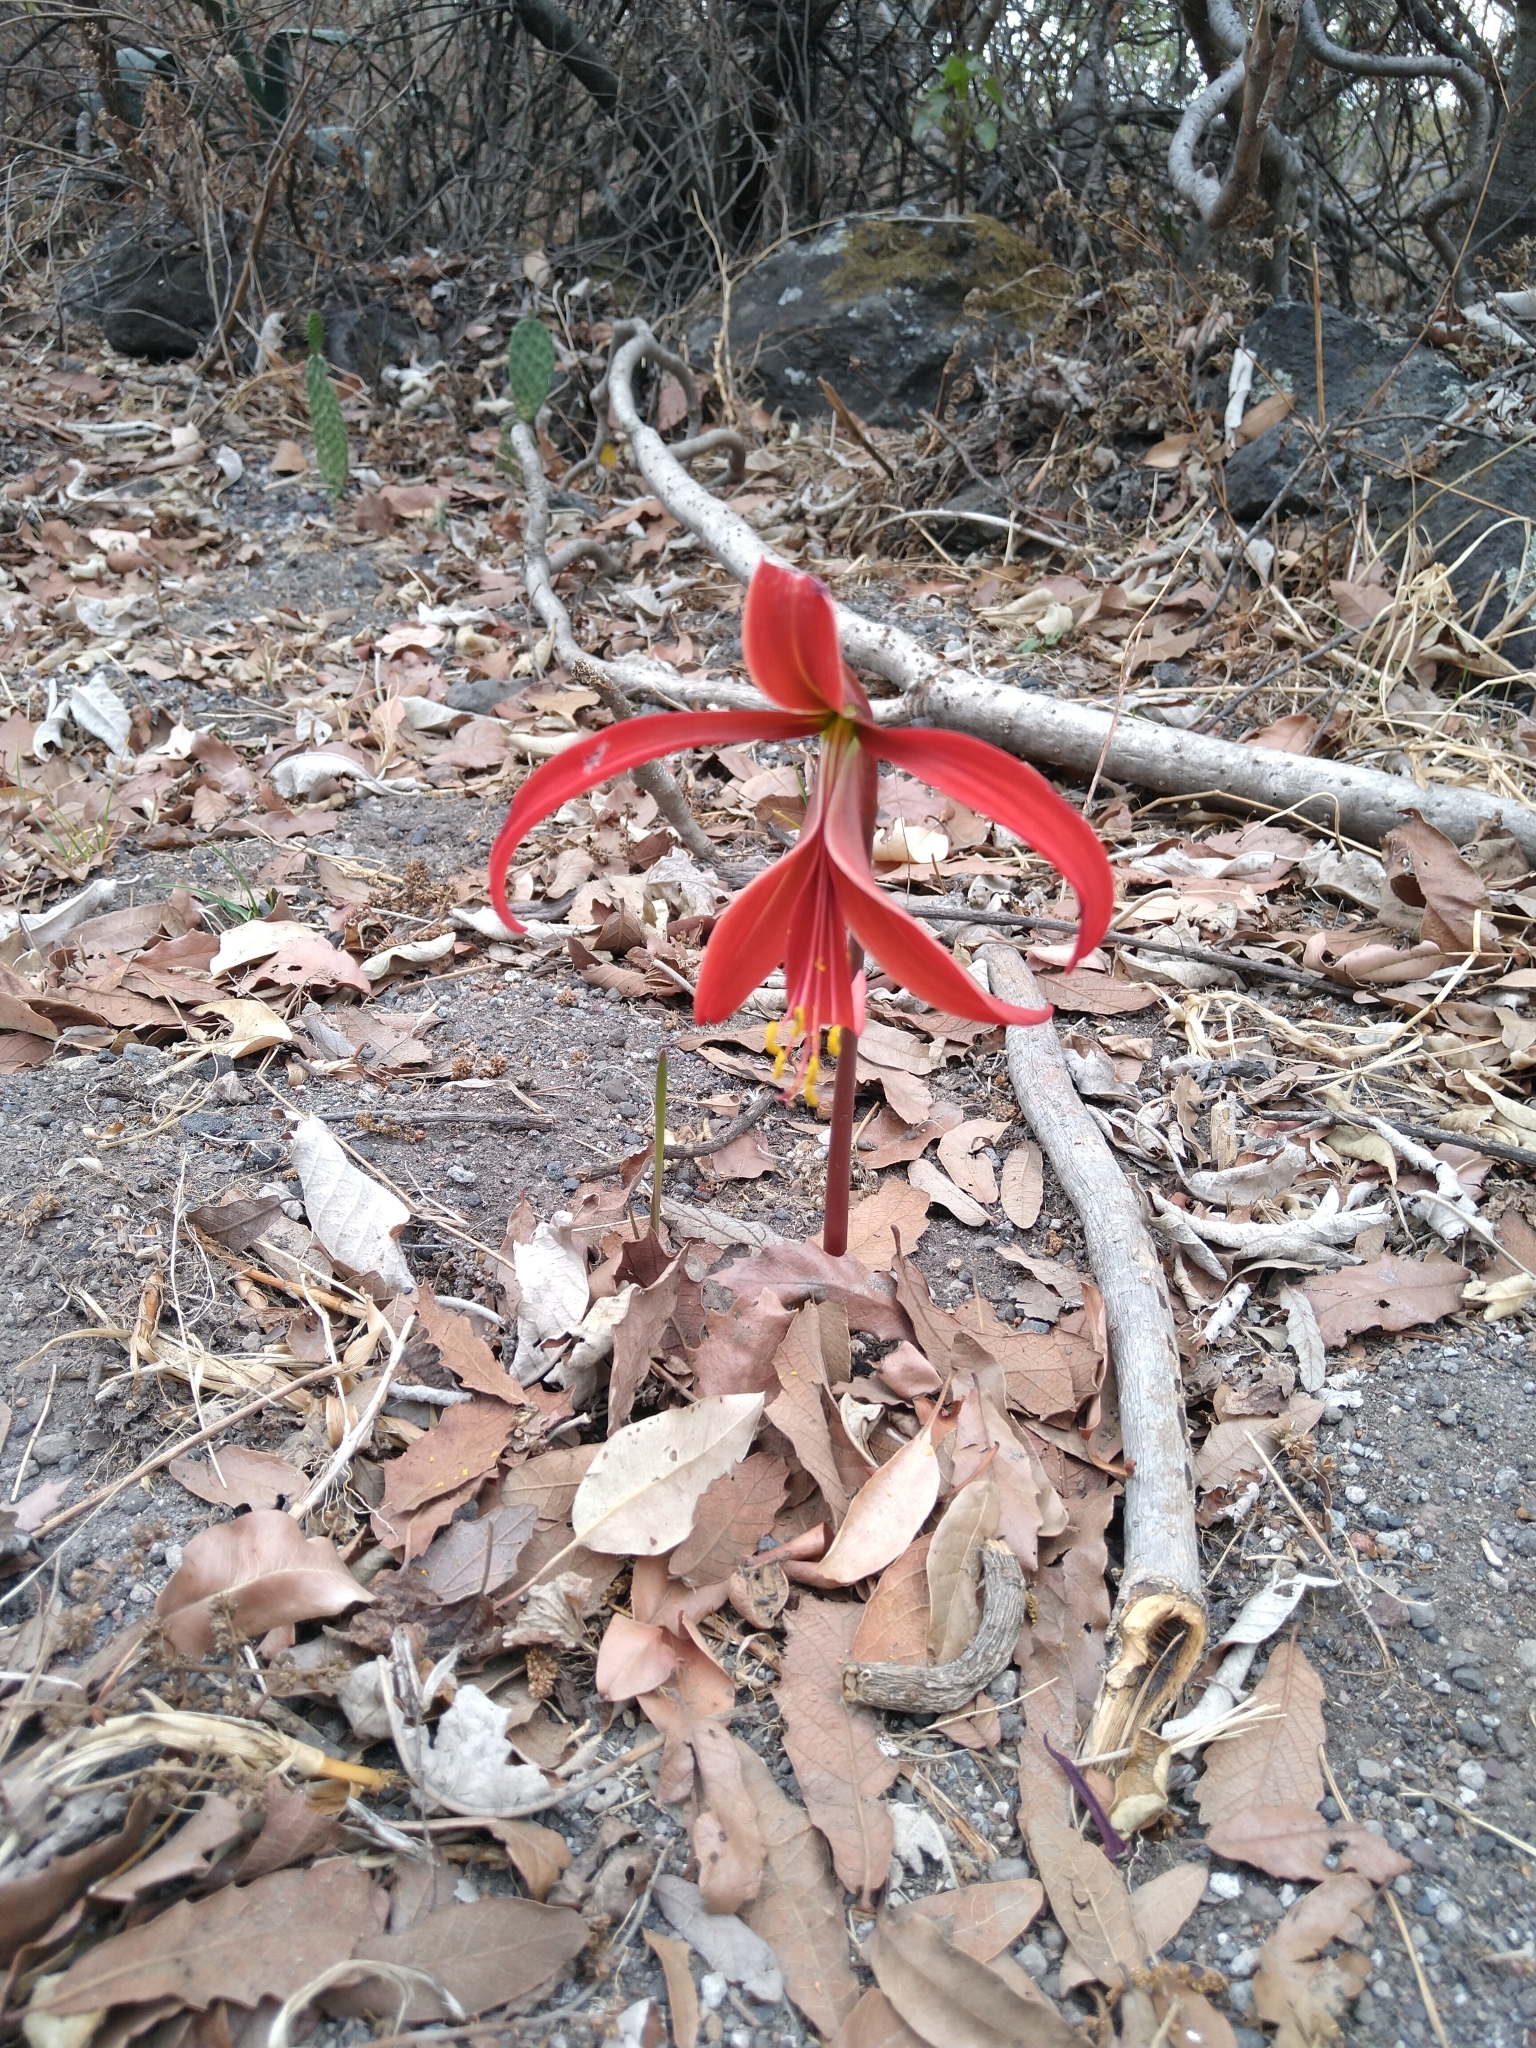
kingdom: Plantae
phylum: Tracheophyta
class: Liliopsida
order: Asparagales
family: Amaryllidaceae
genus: Sprekelia
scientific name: Sprekelia formosissima
